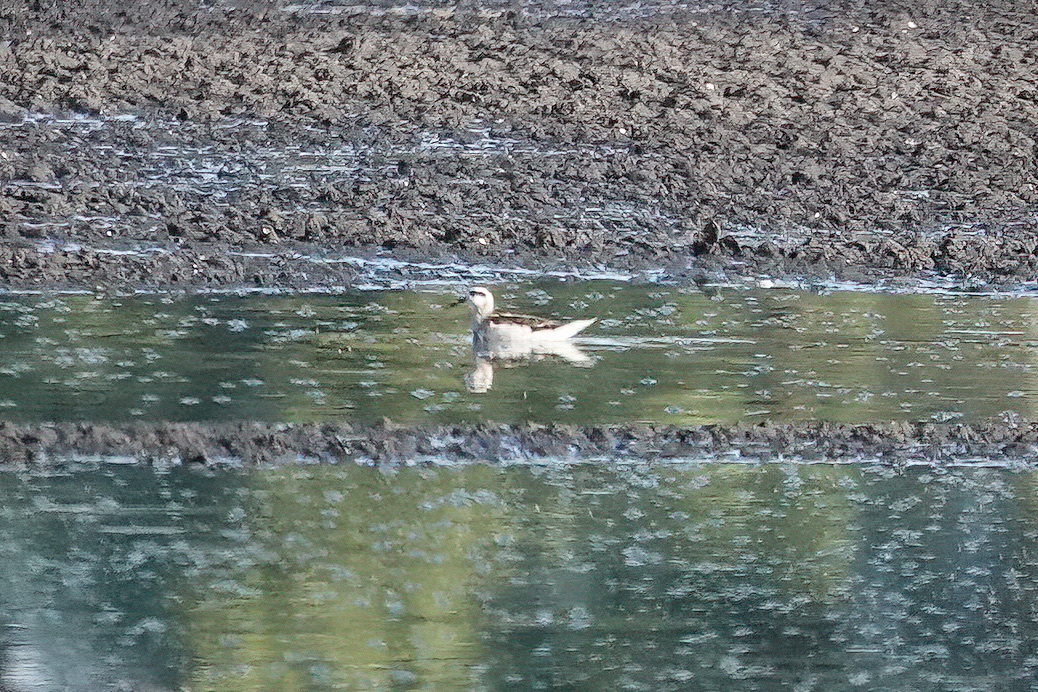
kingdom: Animalia
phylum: Chordata
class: Aves
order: Charadriiformes
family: Scolopacidae
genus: Phalaropus
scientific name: Phalaropus lobatus
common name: Red-necked phalarope
